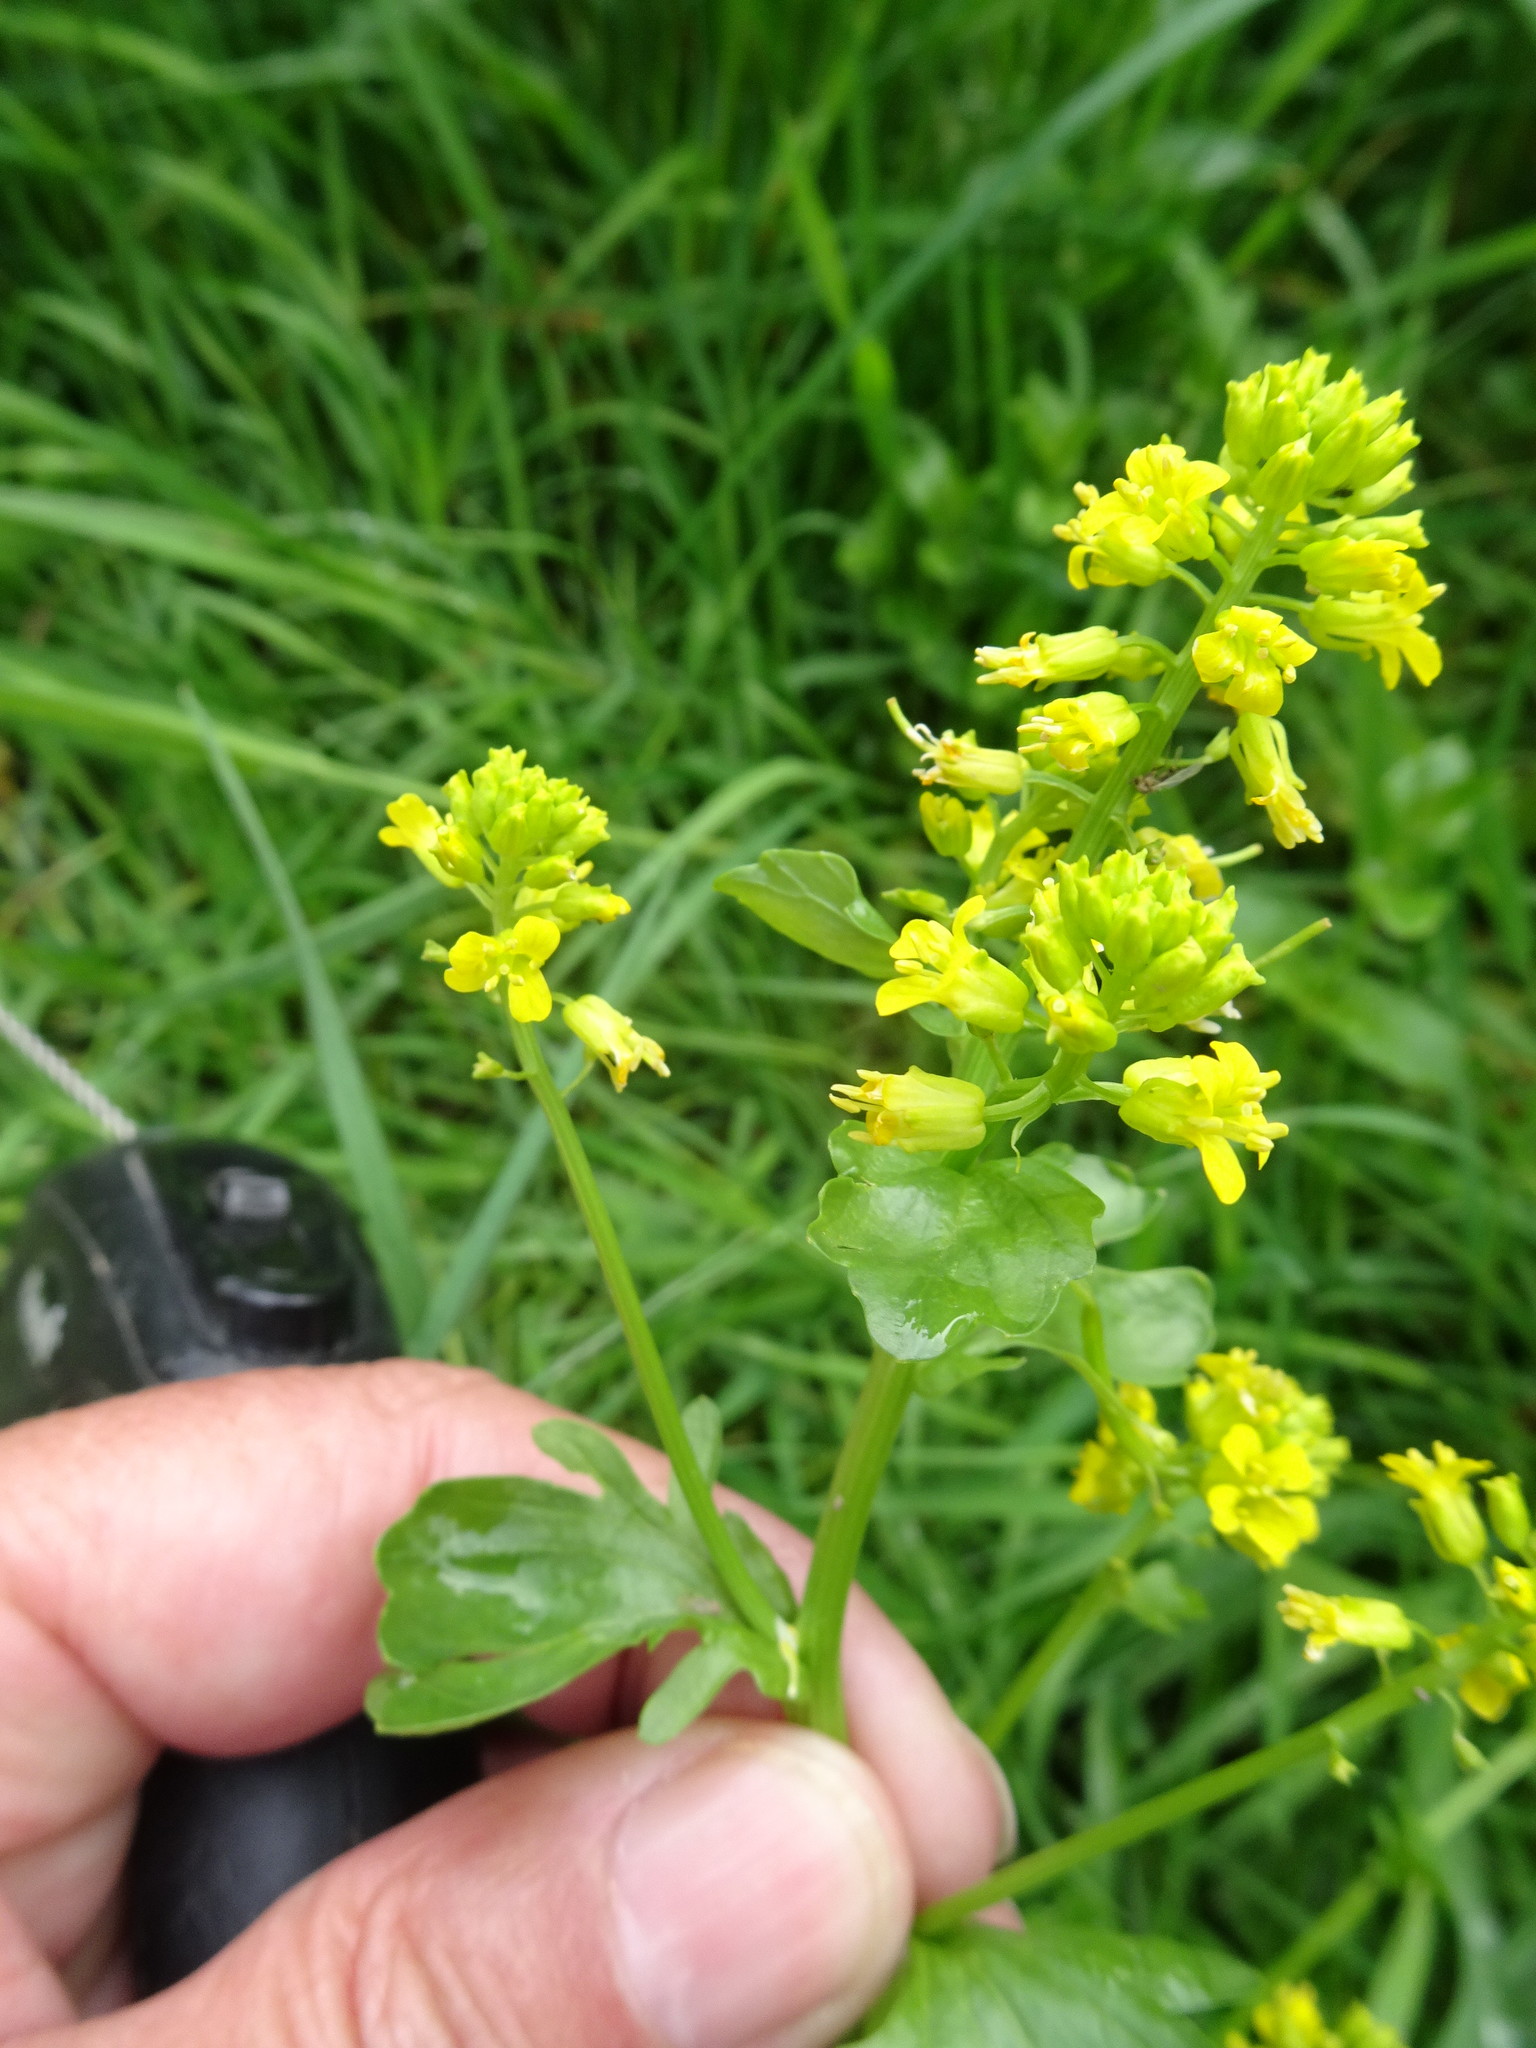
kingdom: Plantae
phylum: Tracheophyta
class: Magnoliopsida
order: Brassicales
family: Brassicaceae
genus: Barbarea
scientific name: Barbarea vulgaris
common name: Cressy-greens
